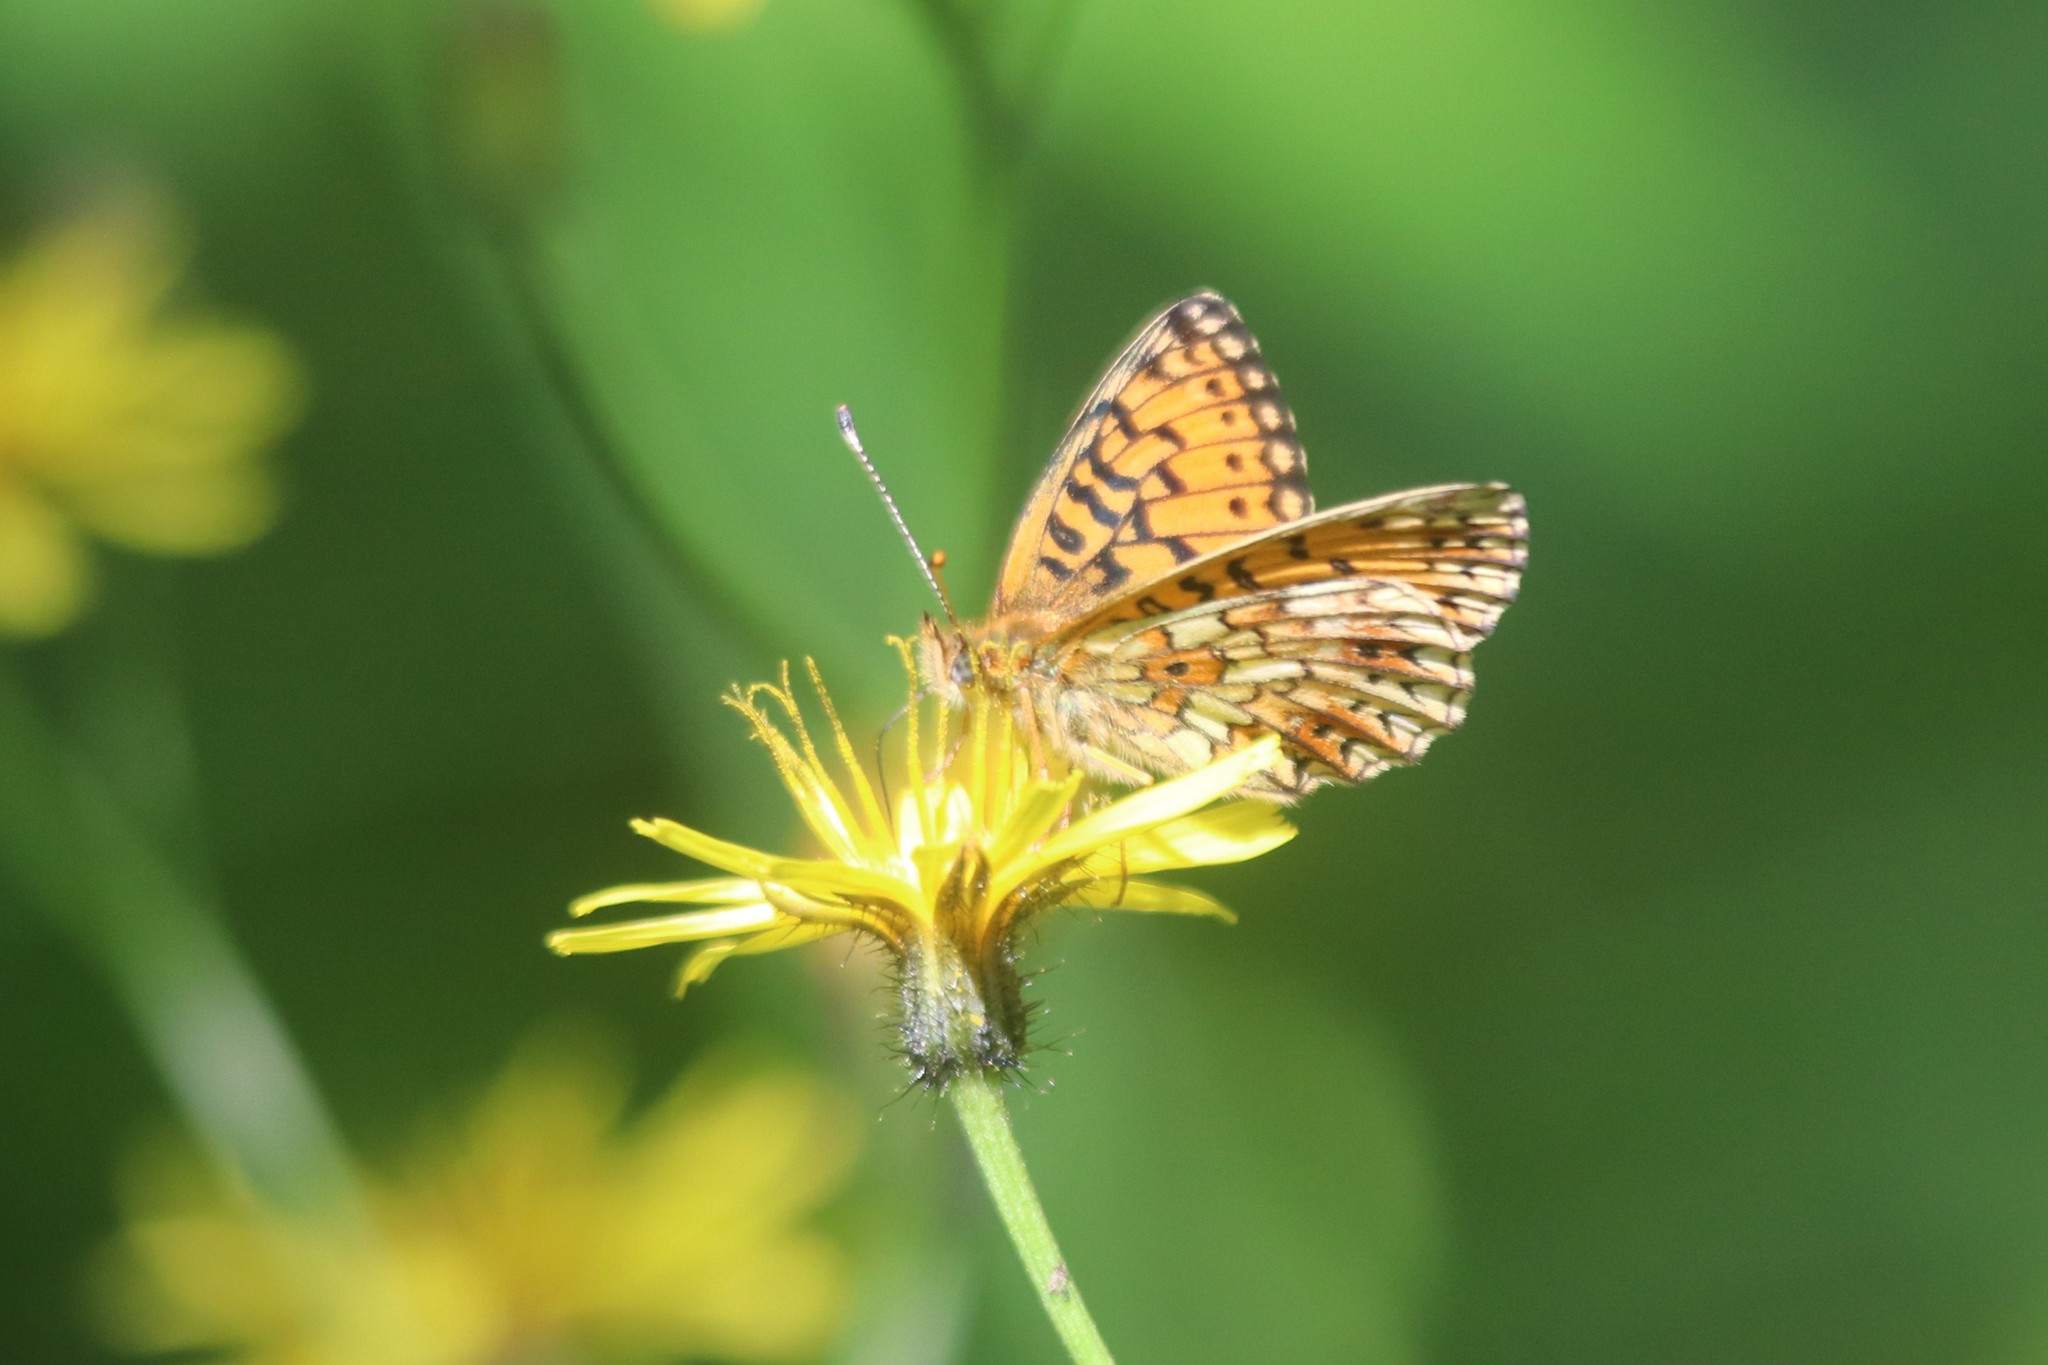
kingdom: Animalia
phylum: Arthropoda
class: Insecta
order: Lepidoptera
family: Nymphalidae
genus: Boloria
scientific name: Boloria selene
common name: Small pearl-bordered fritillary
